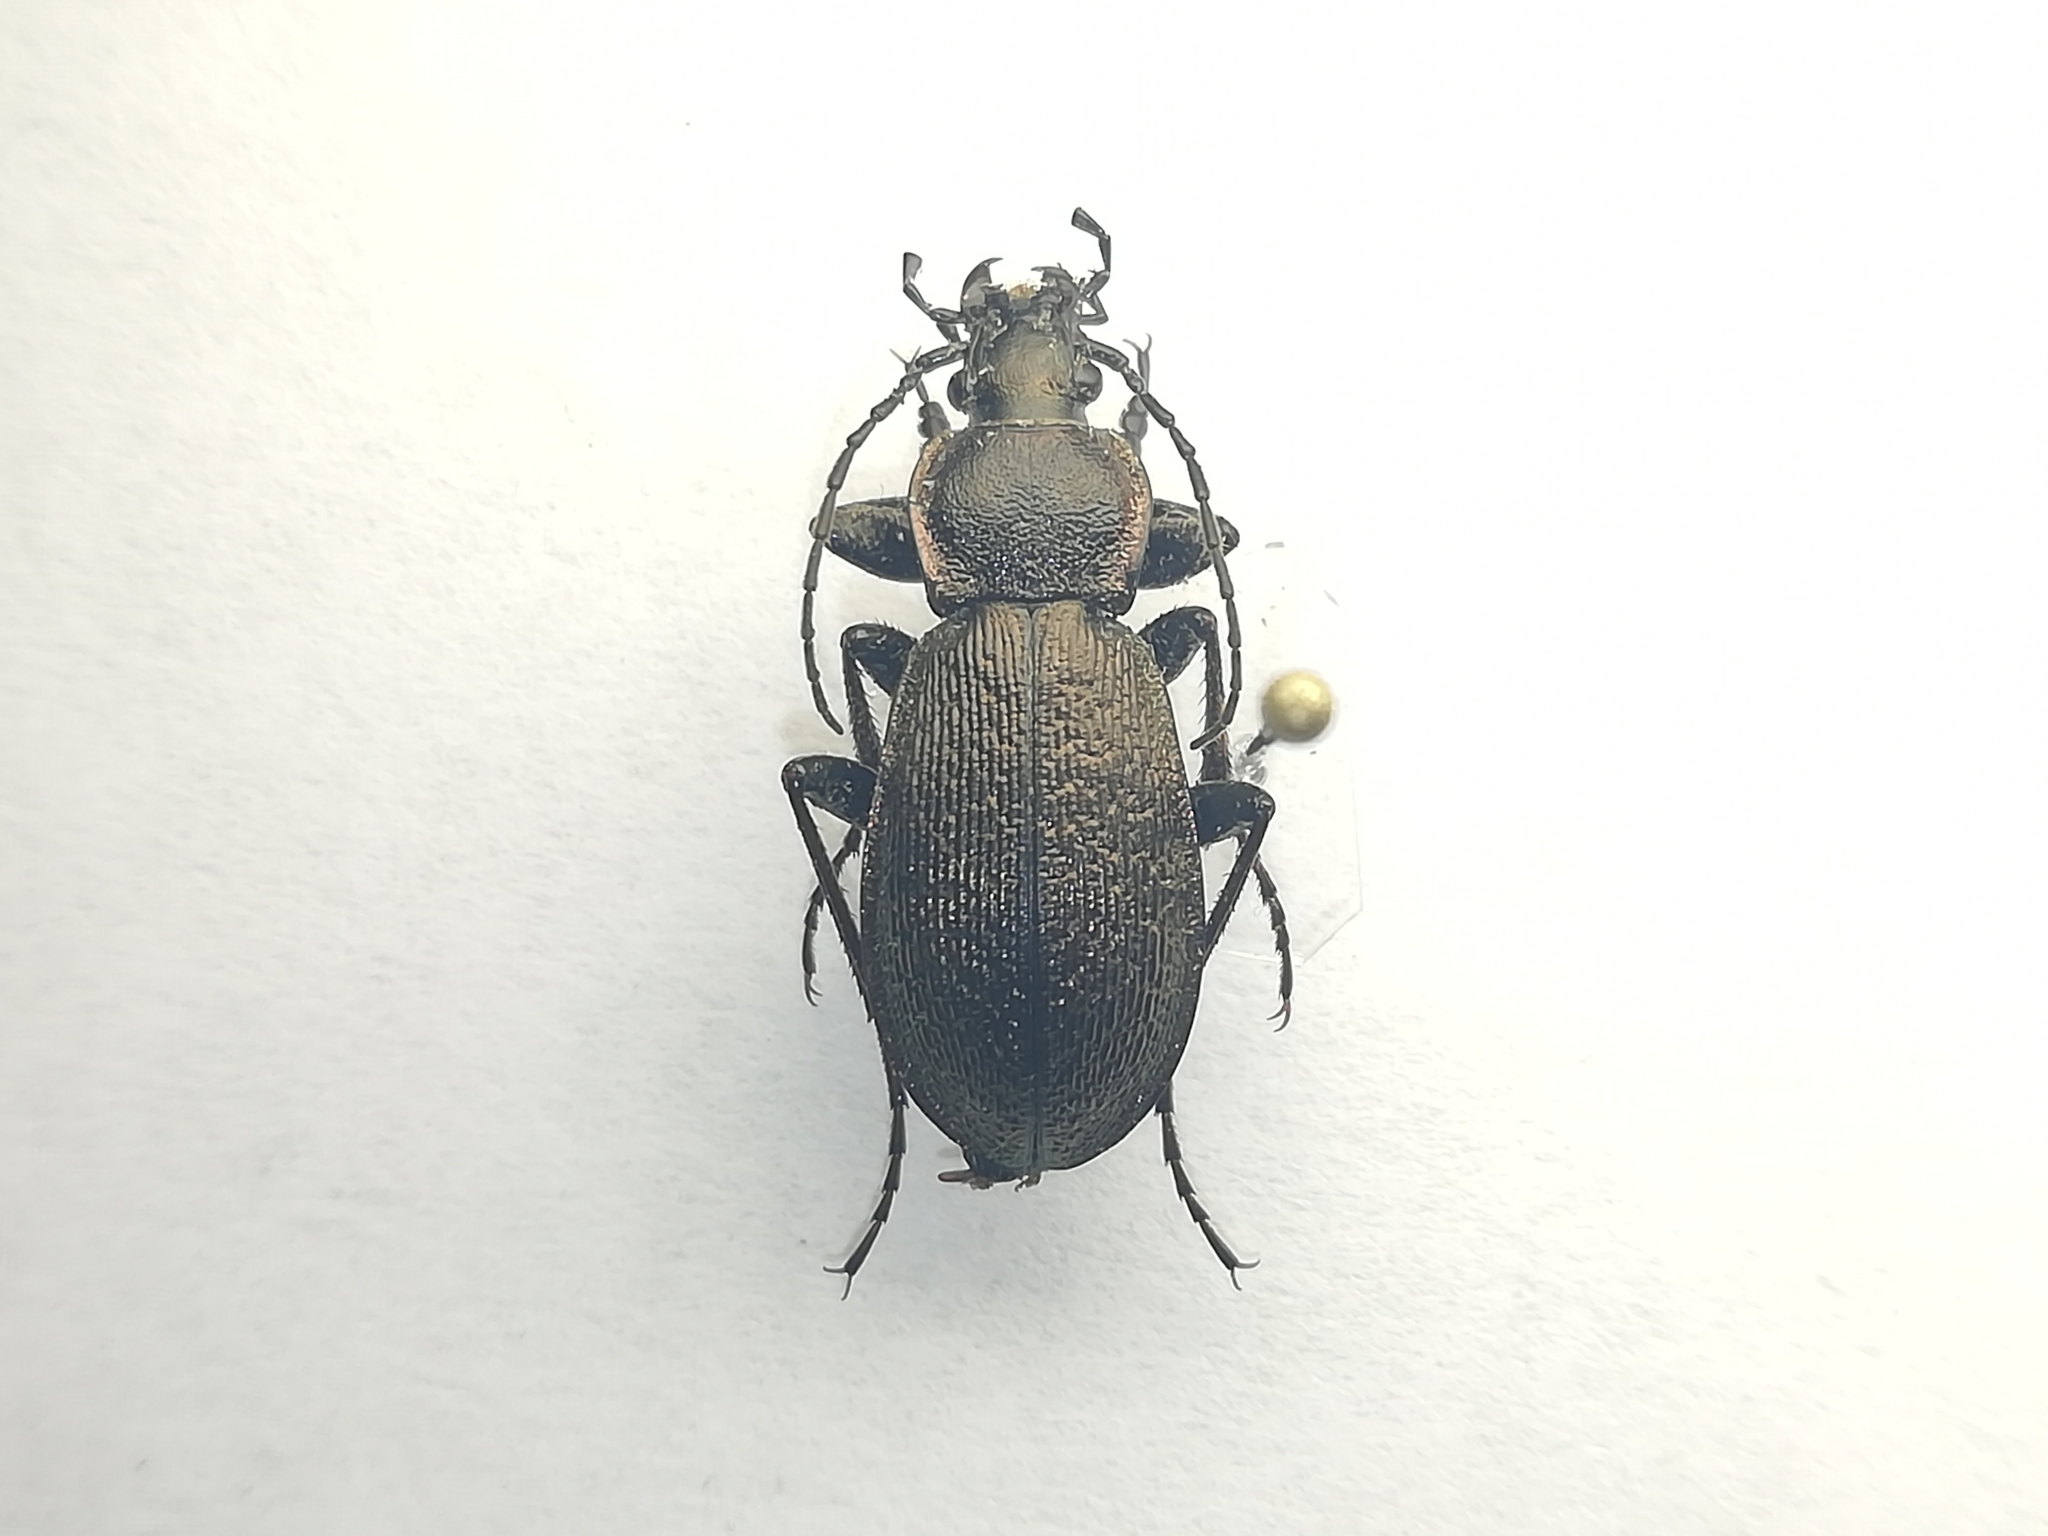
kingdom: Animalia
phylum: Arthropoda
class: Insecta
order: Coleoptera
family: Carabidae
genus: Carabus
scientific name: Carabus henningi
